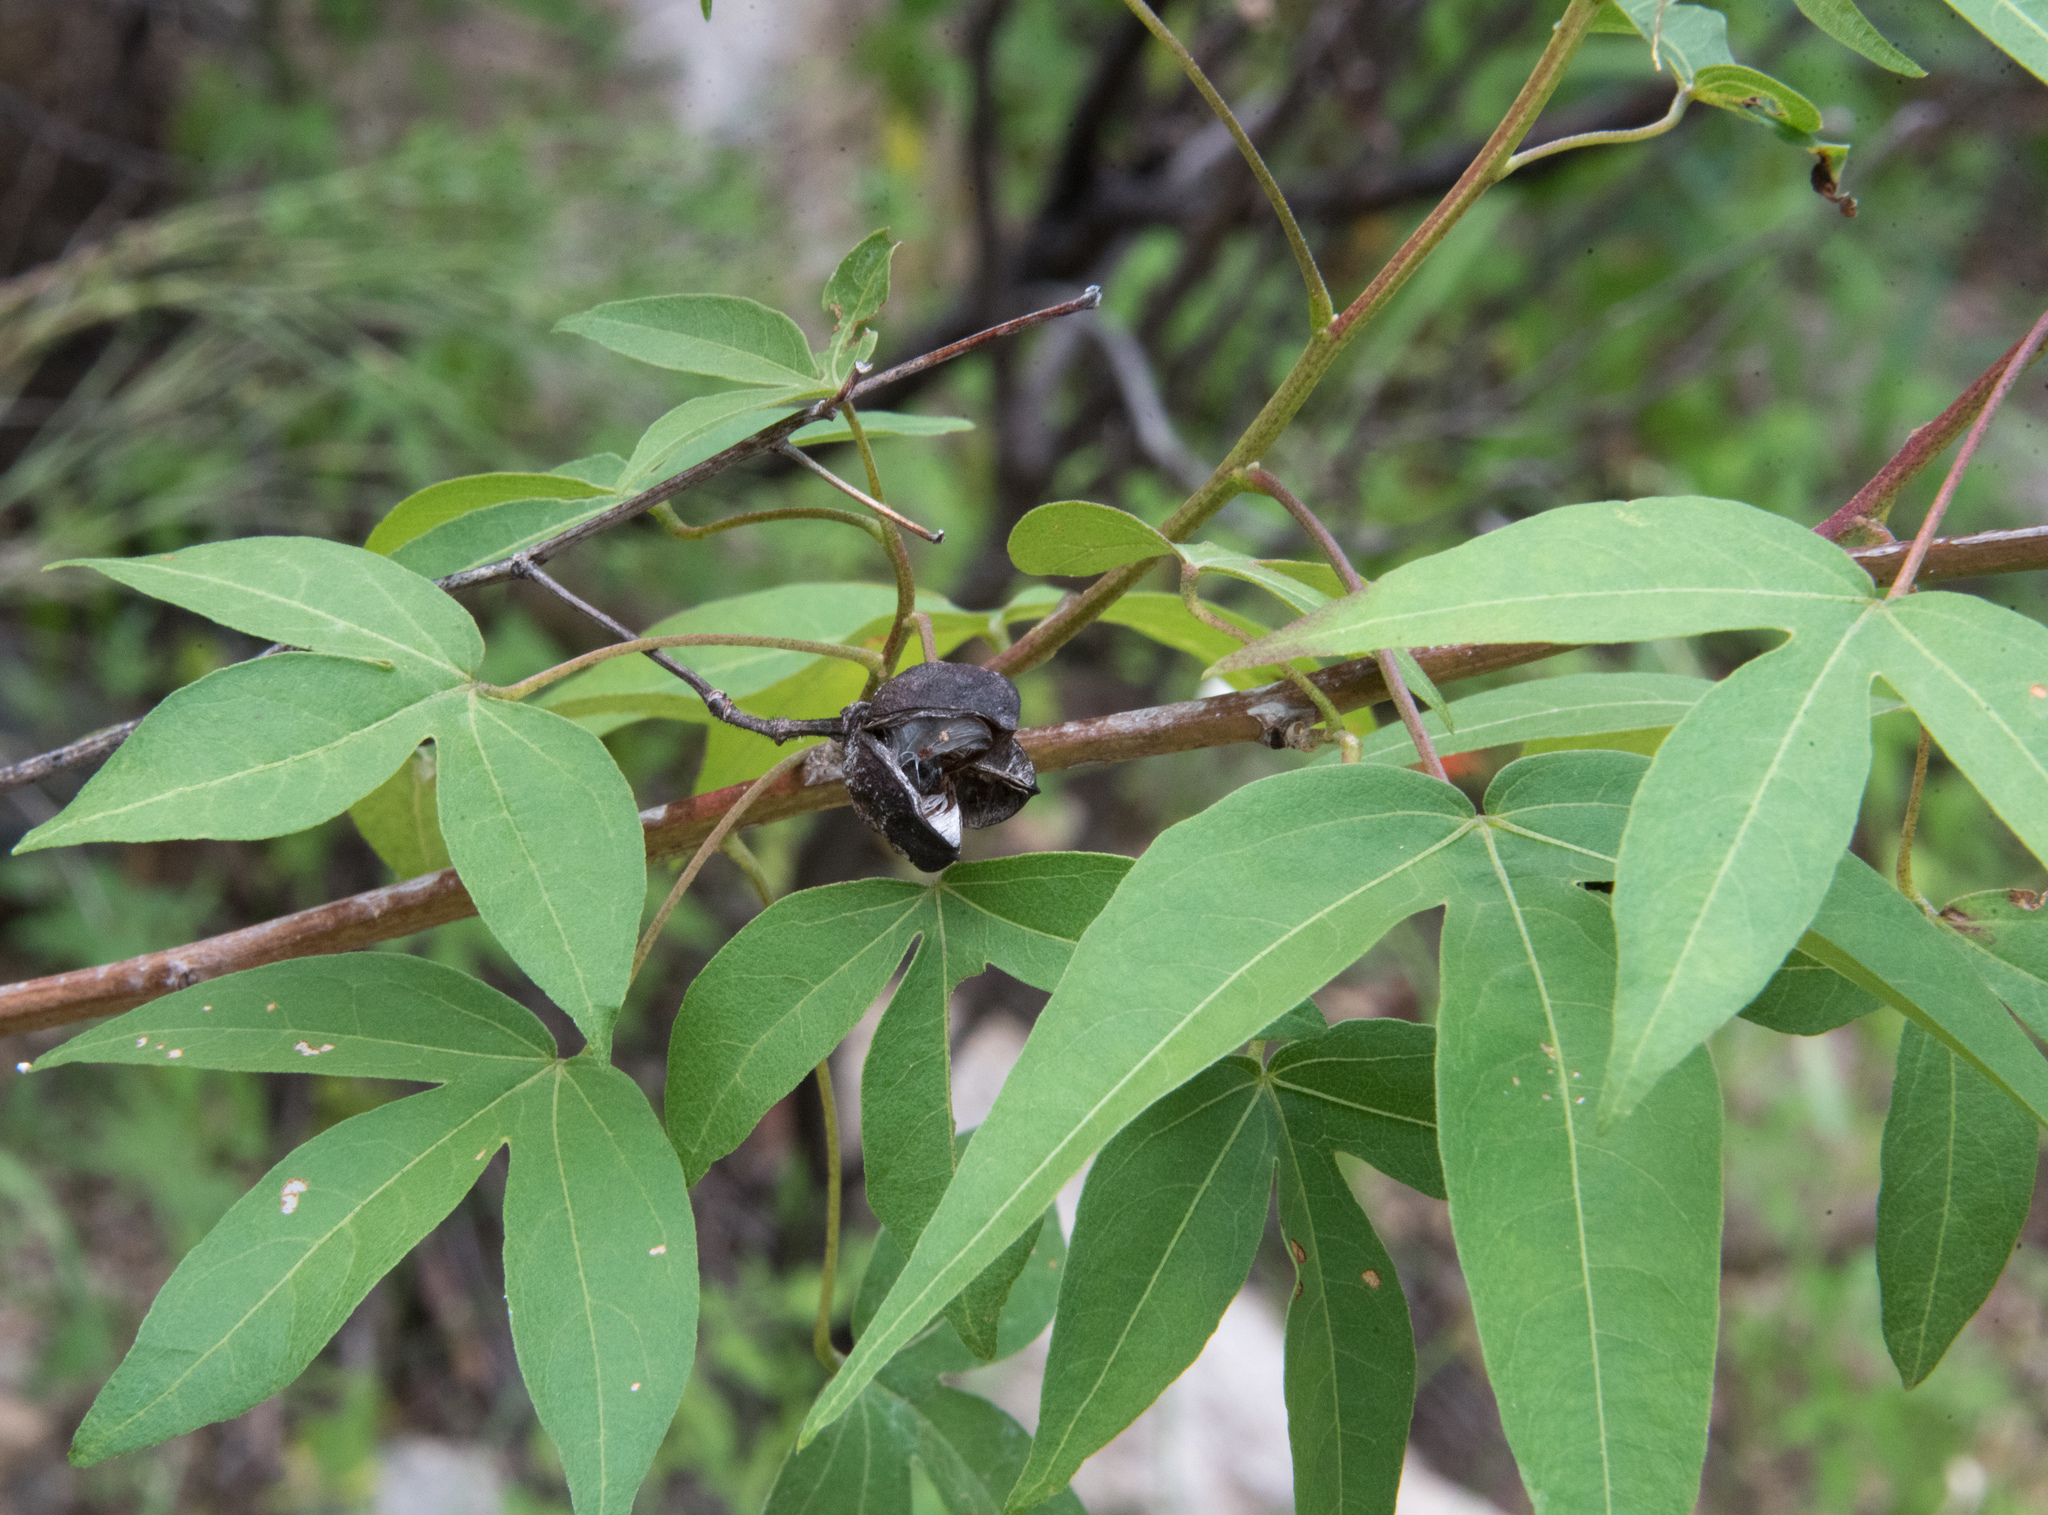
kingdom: Plantae
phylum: Tracheophyta
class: Magnoliopsida
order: Malvales
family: Malvaceae
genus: Gossypium
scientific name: Gossypium thurberi
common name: Desert cotton
